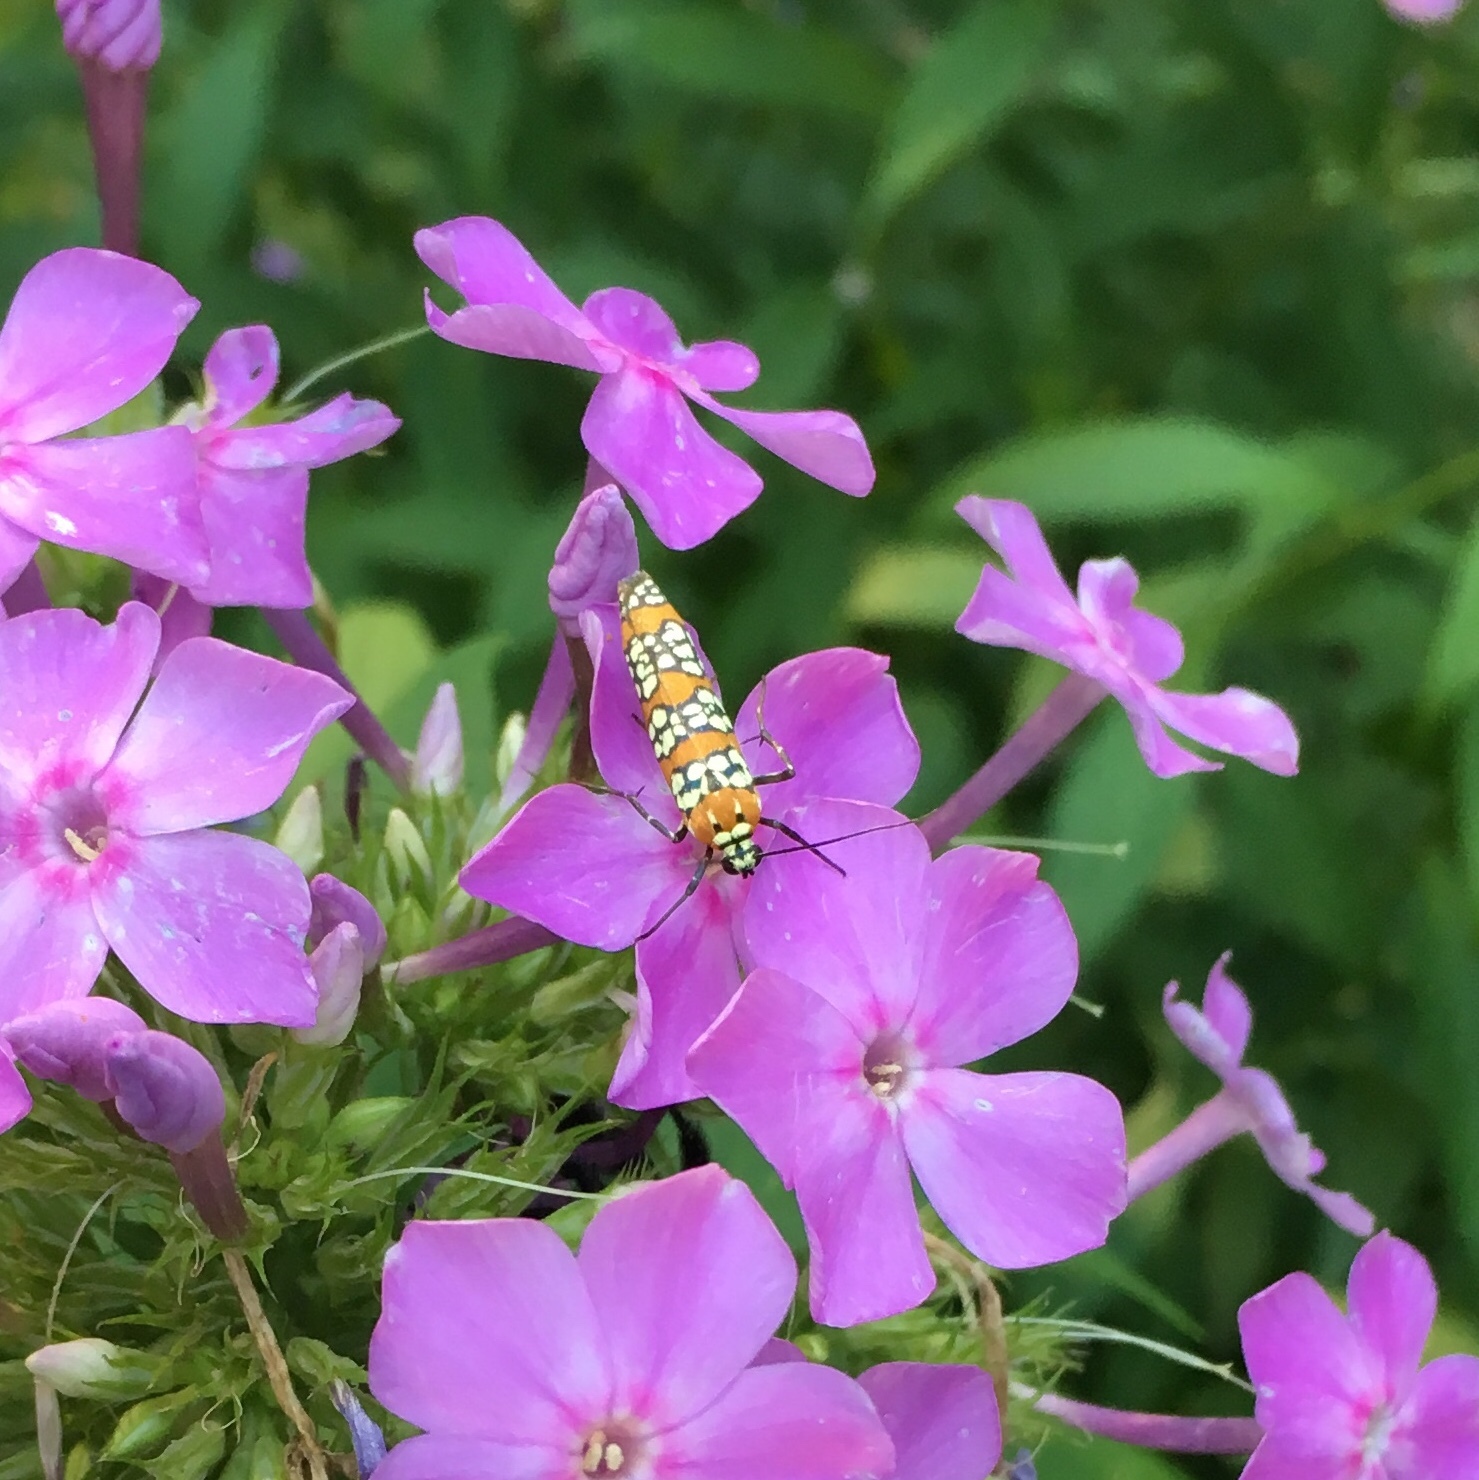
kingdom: Animalia
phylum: Arthropoda
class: Insecta
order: Lepidoptera
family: Attevidae
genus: Atteva
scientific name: Atteva punctella
